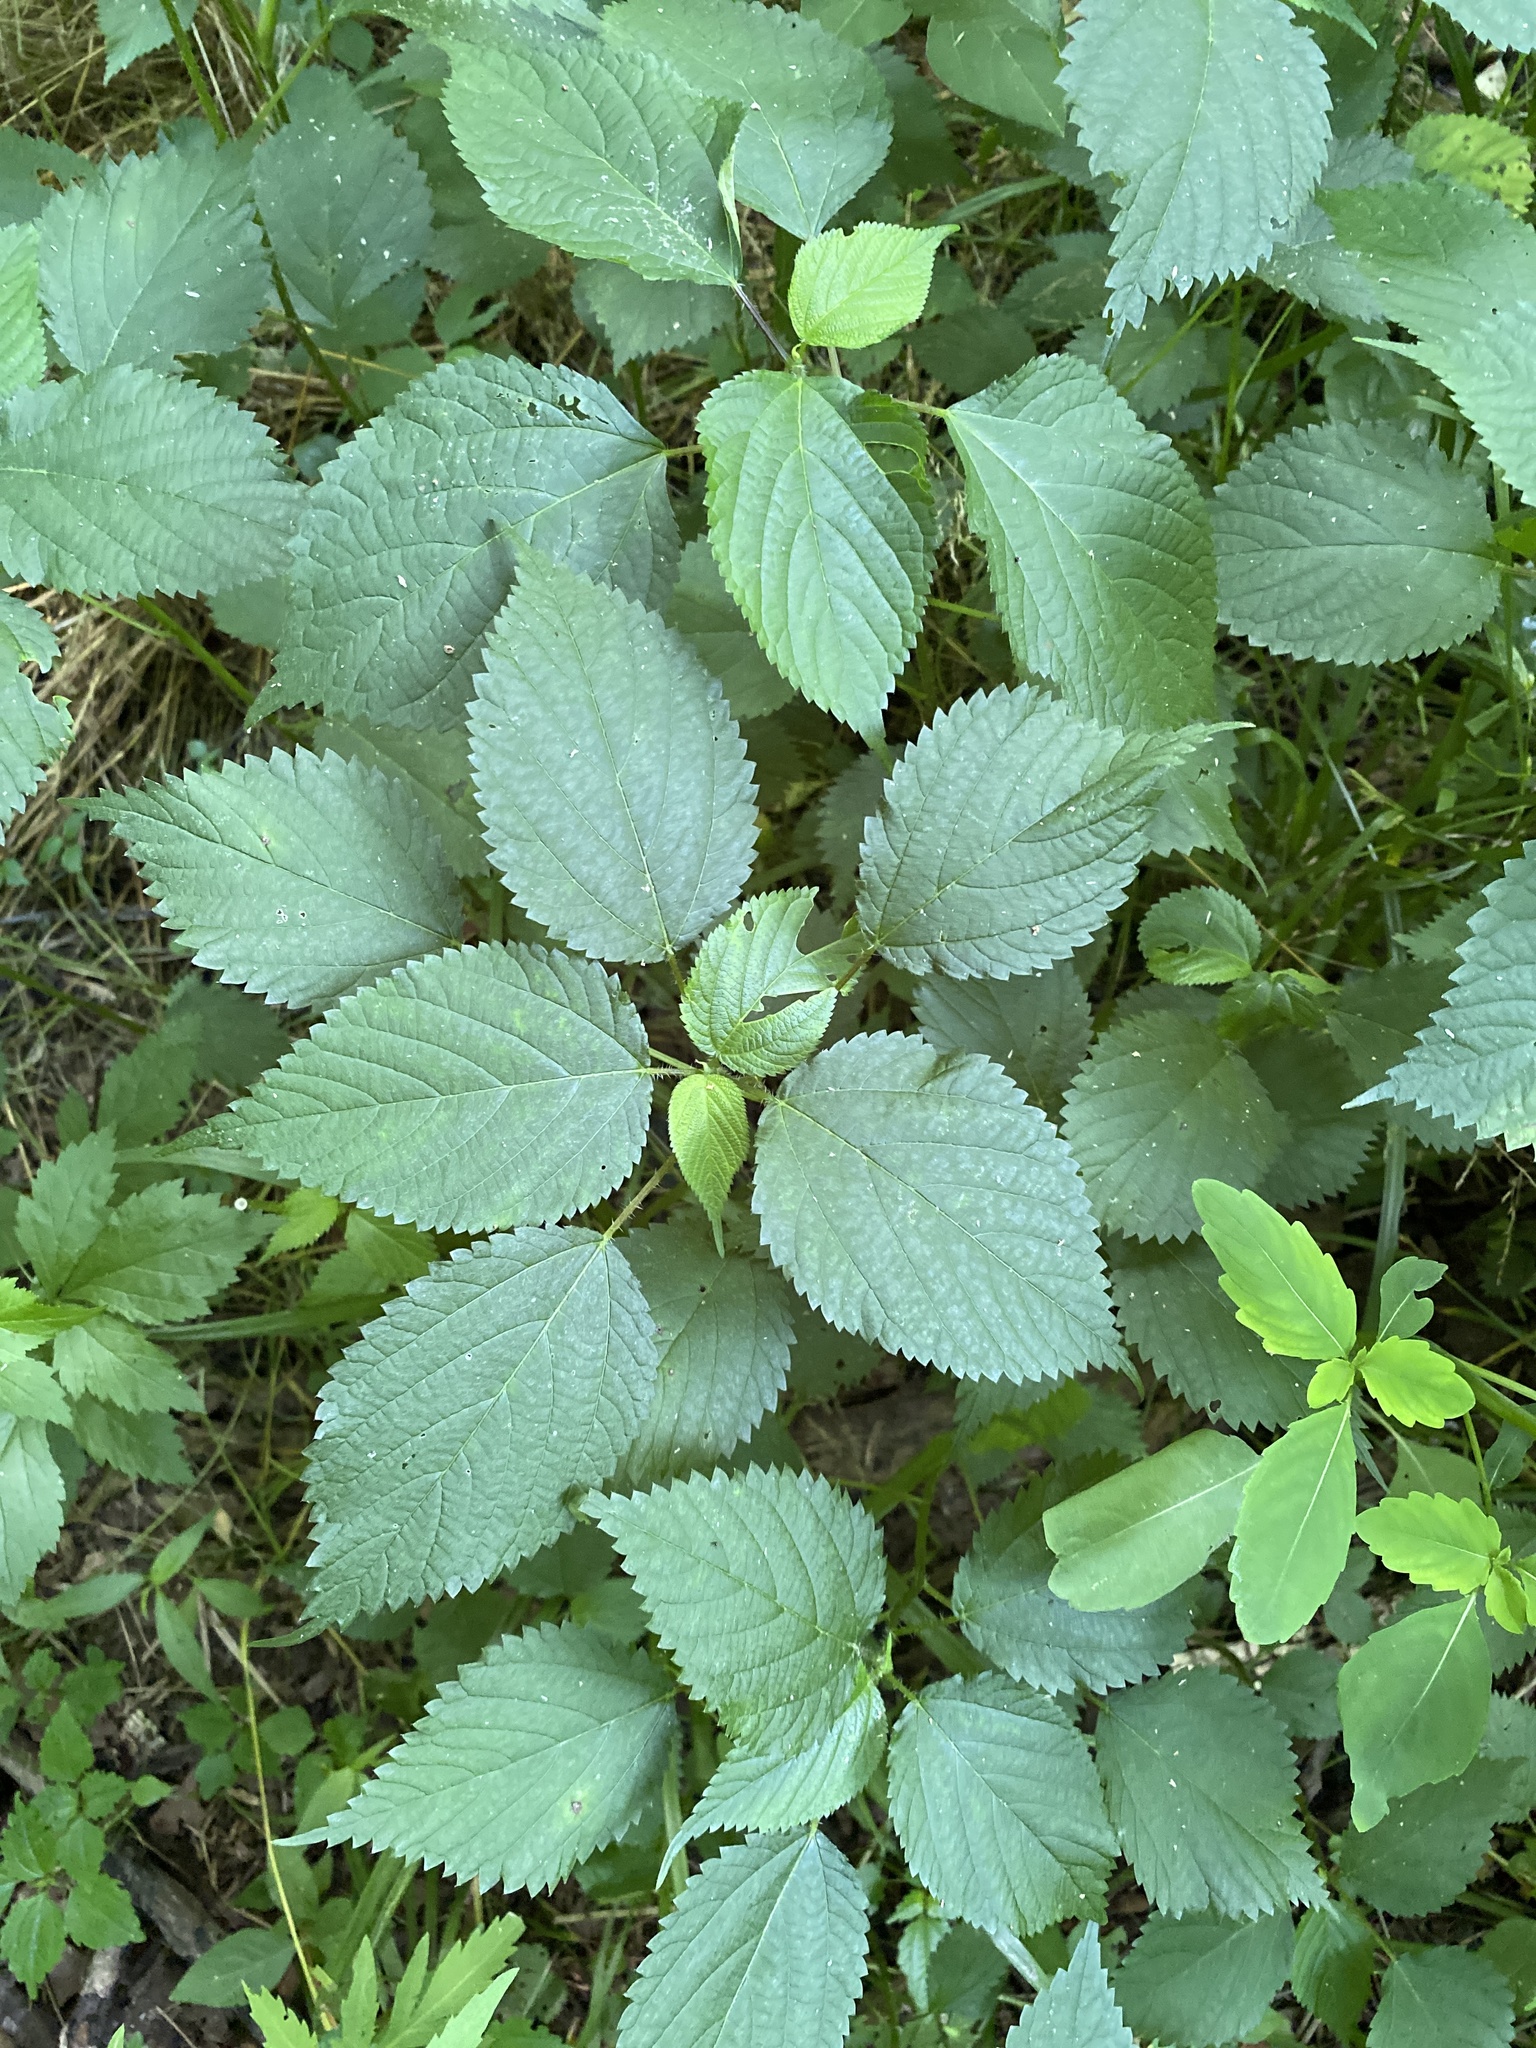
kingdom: Plantae
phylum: Tracheophyta
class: Magnoliopsida
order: Rosales
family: Urticaceae
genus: Laportea
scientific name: Laportea canadensis
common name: Canada nettle
